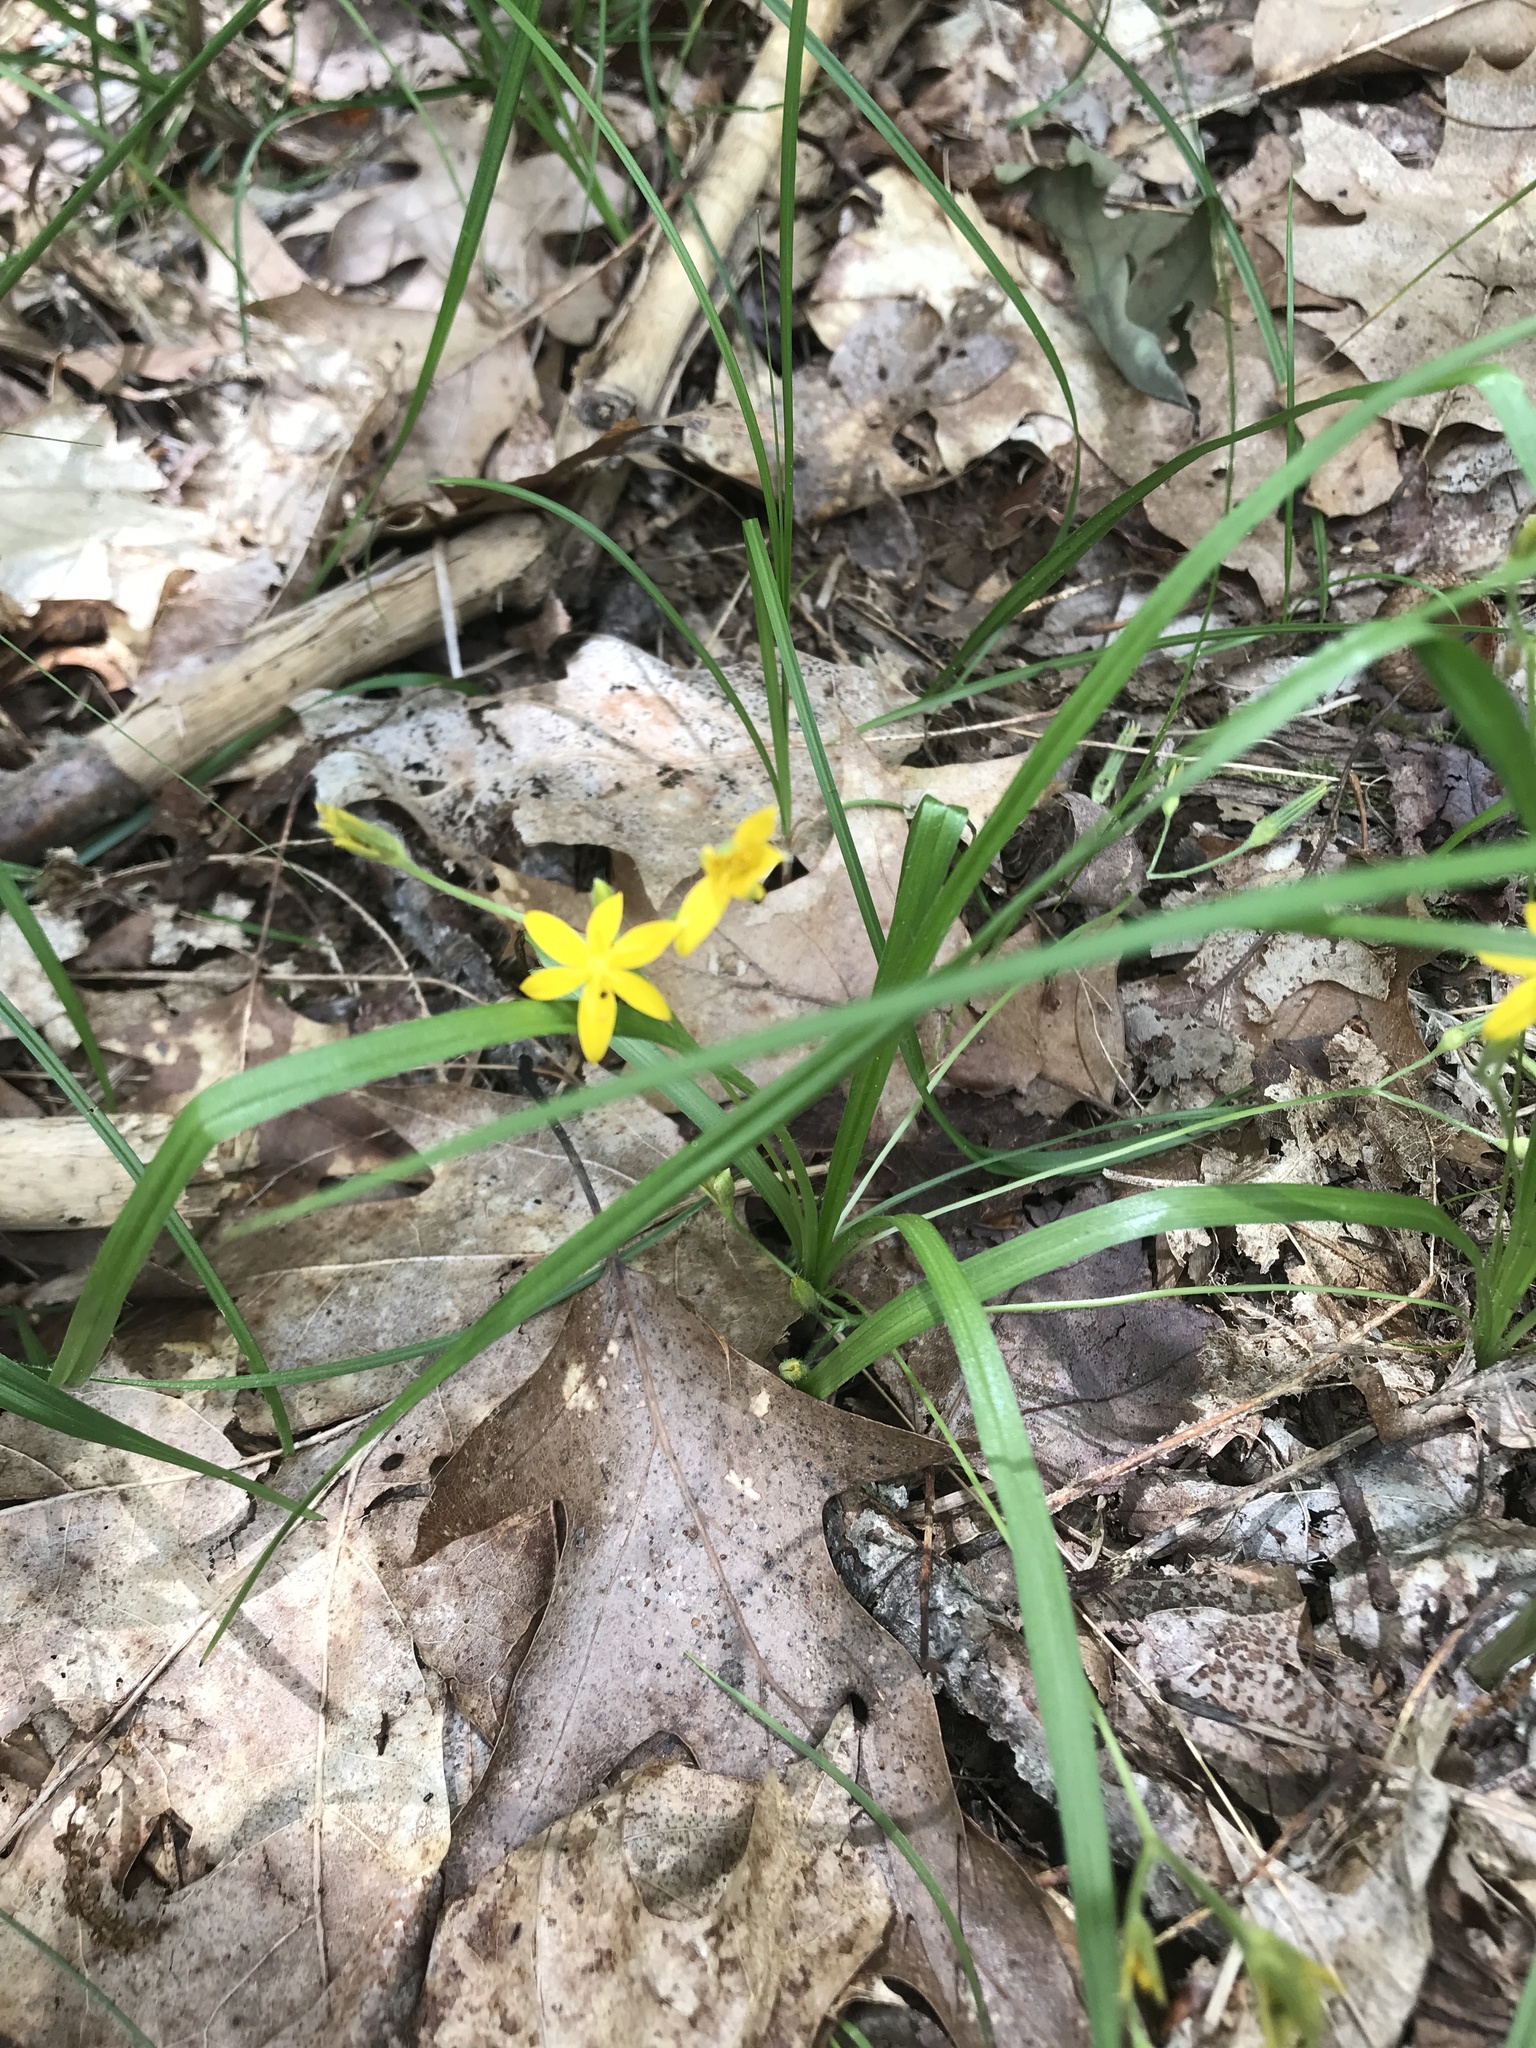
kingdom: Plantae
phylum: Tracheophyta
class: Liliopsida
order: Asparagales
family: Hypoxidaceae
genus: Hypoxis
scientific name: Hypoxis hirsuta
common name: Common goldstar
